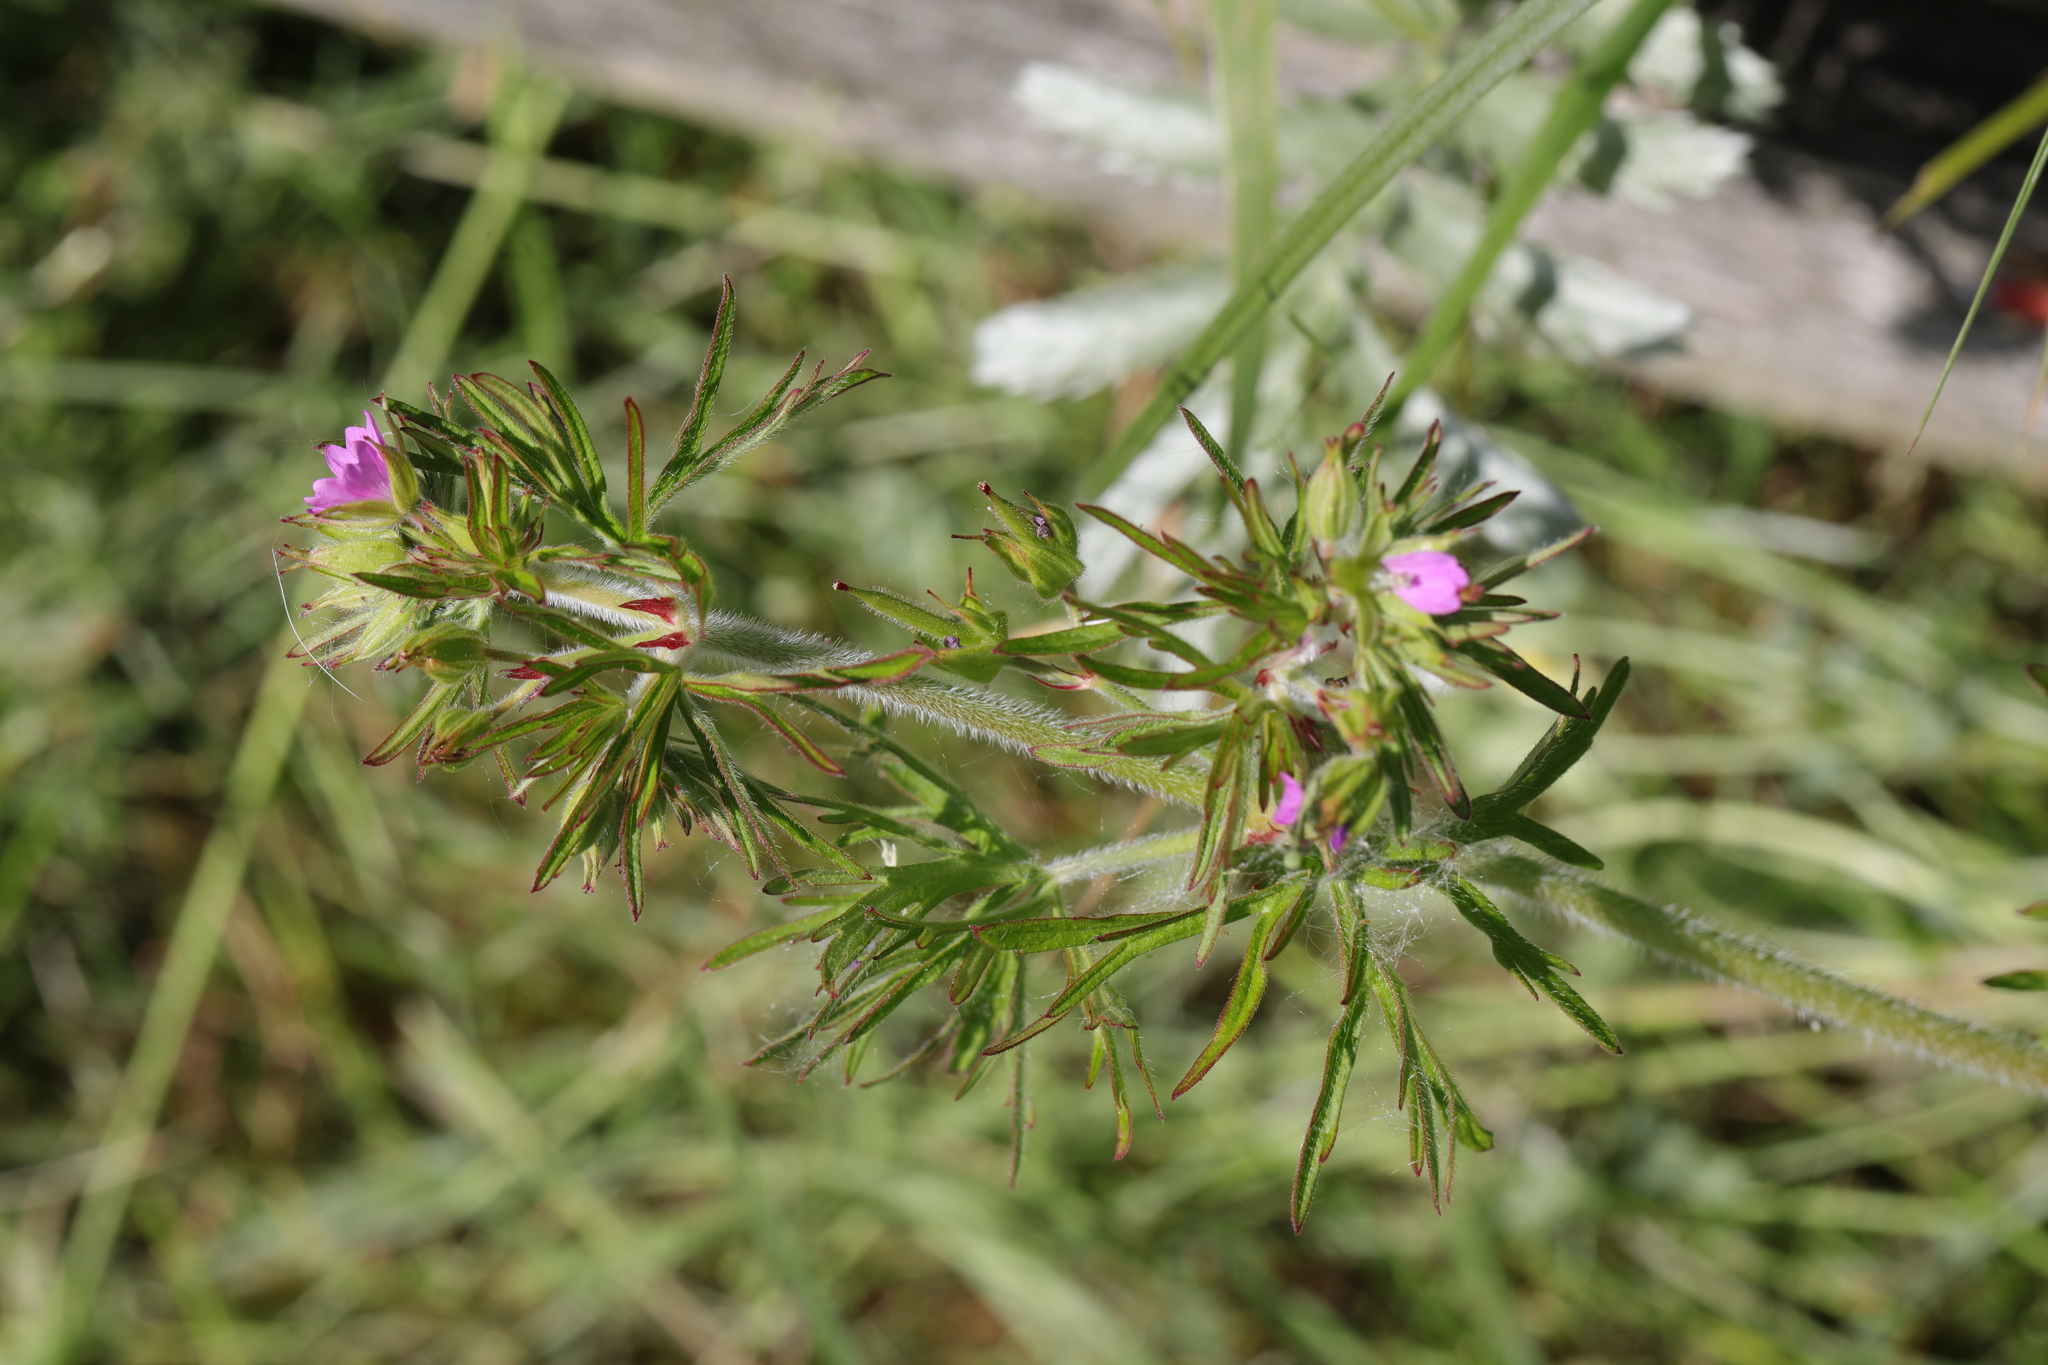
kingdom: Plantae
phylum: Tracheophyta
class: Magnoliopsida
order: Geraniales
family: Geraniaceae
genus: Geranium
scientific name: Geranium dissectum
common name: Cut-leaved crane's-bill
